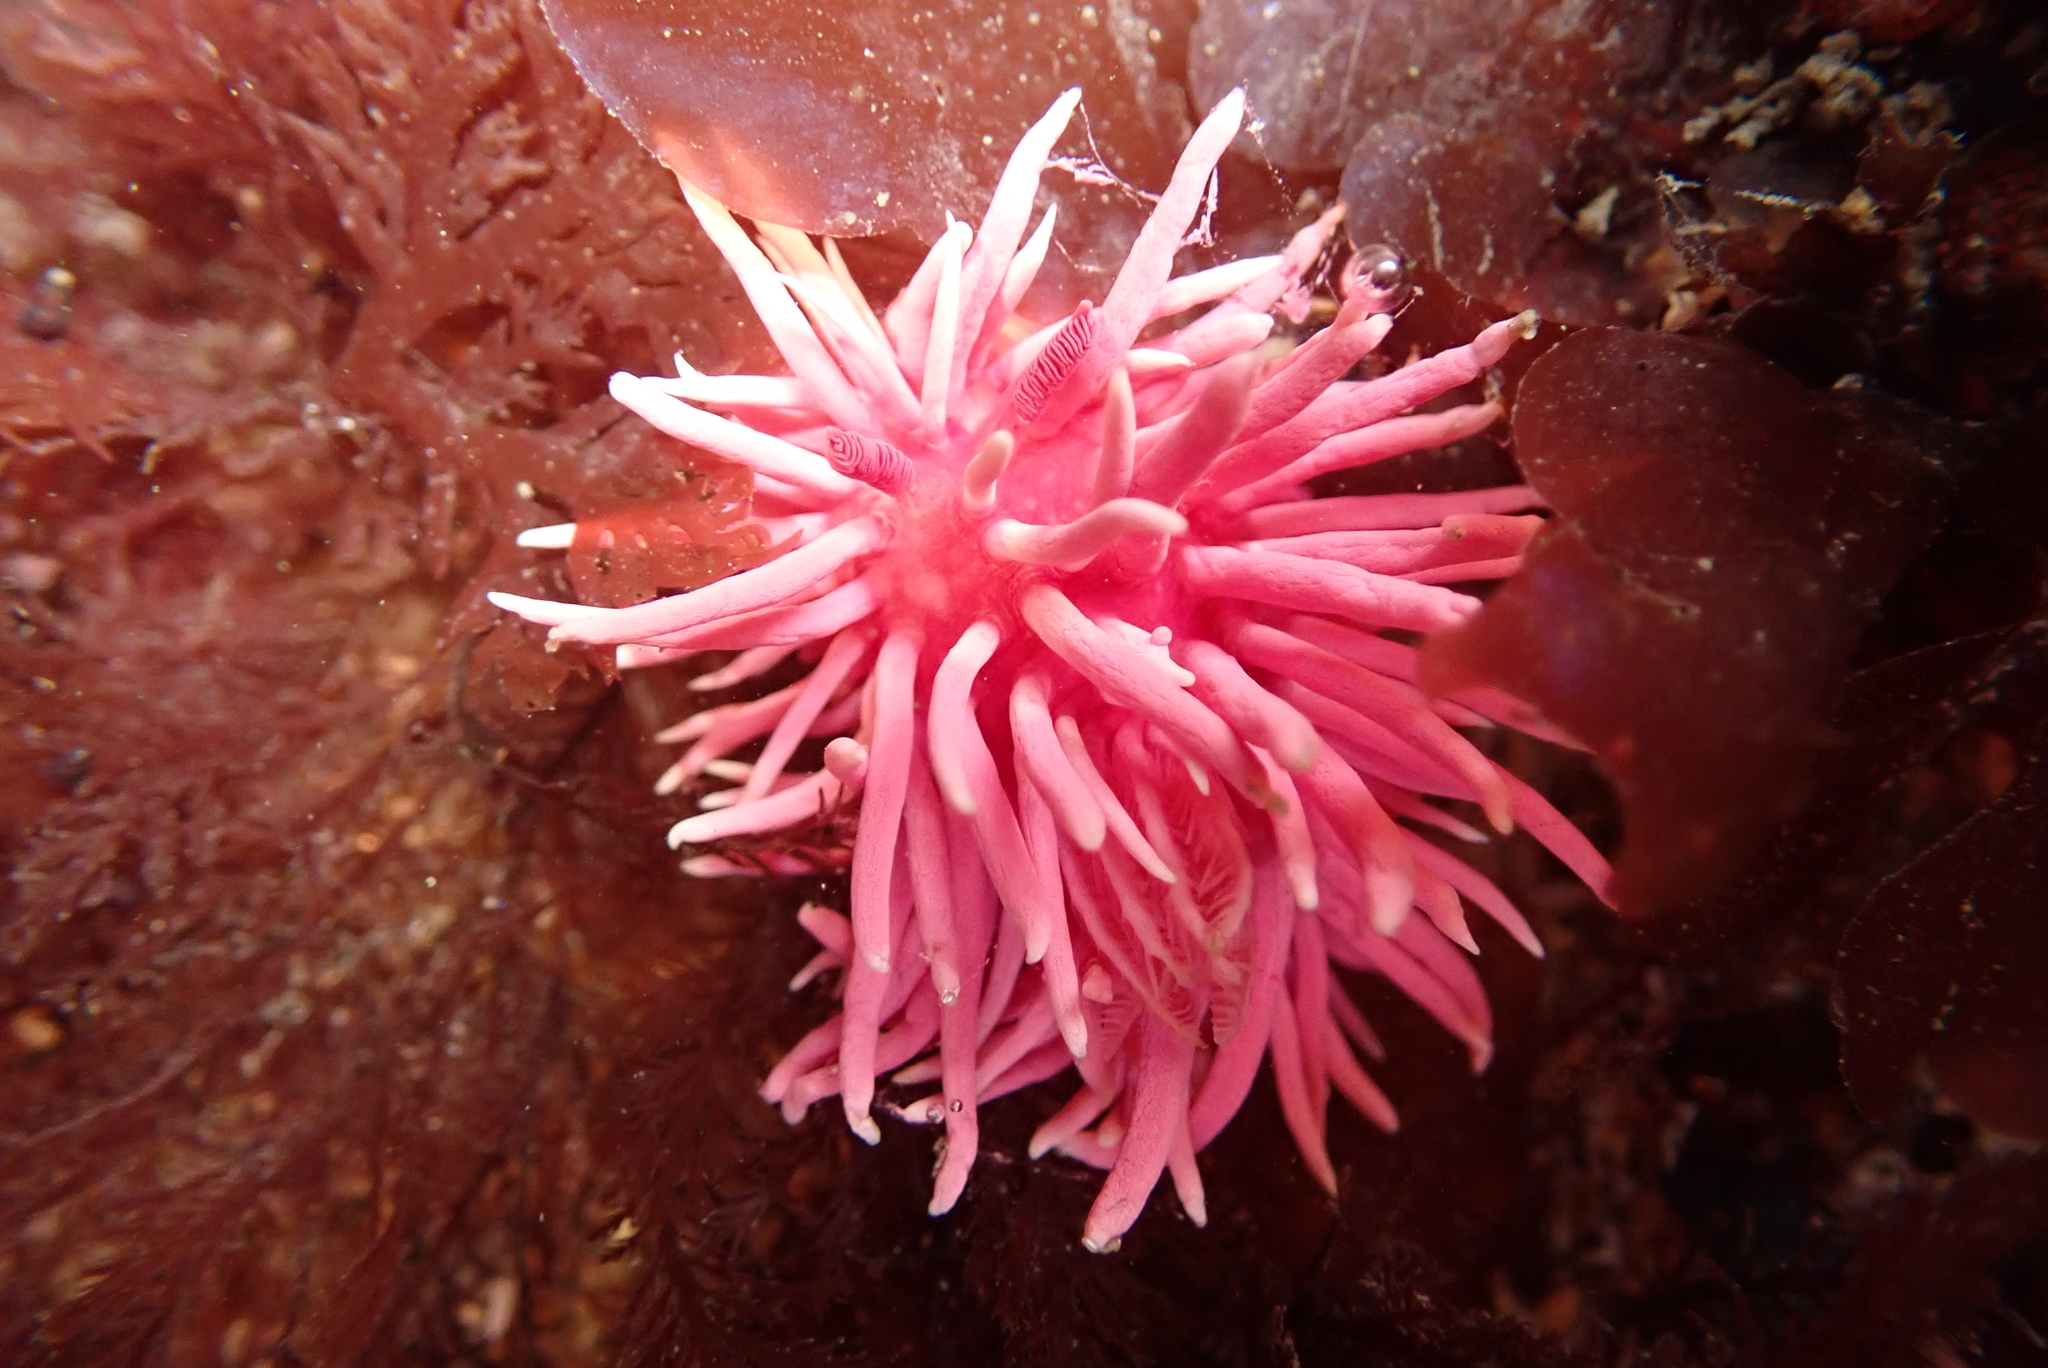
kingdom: Animalia
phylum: Mollusca
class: Gastropoda
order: Nudibranchia
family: Goniodorididae
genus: Okenia
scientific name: Okenia
